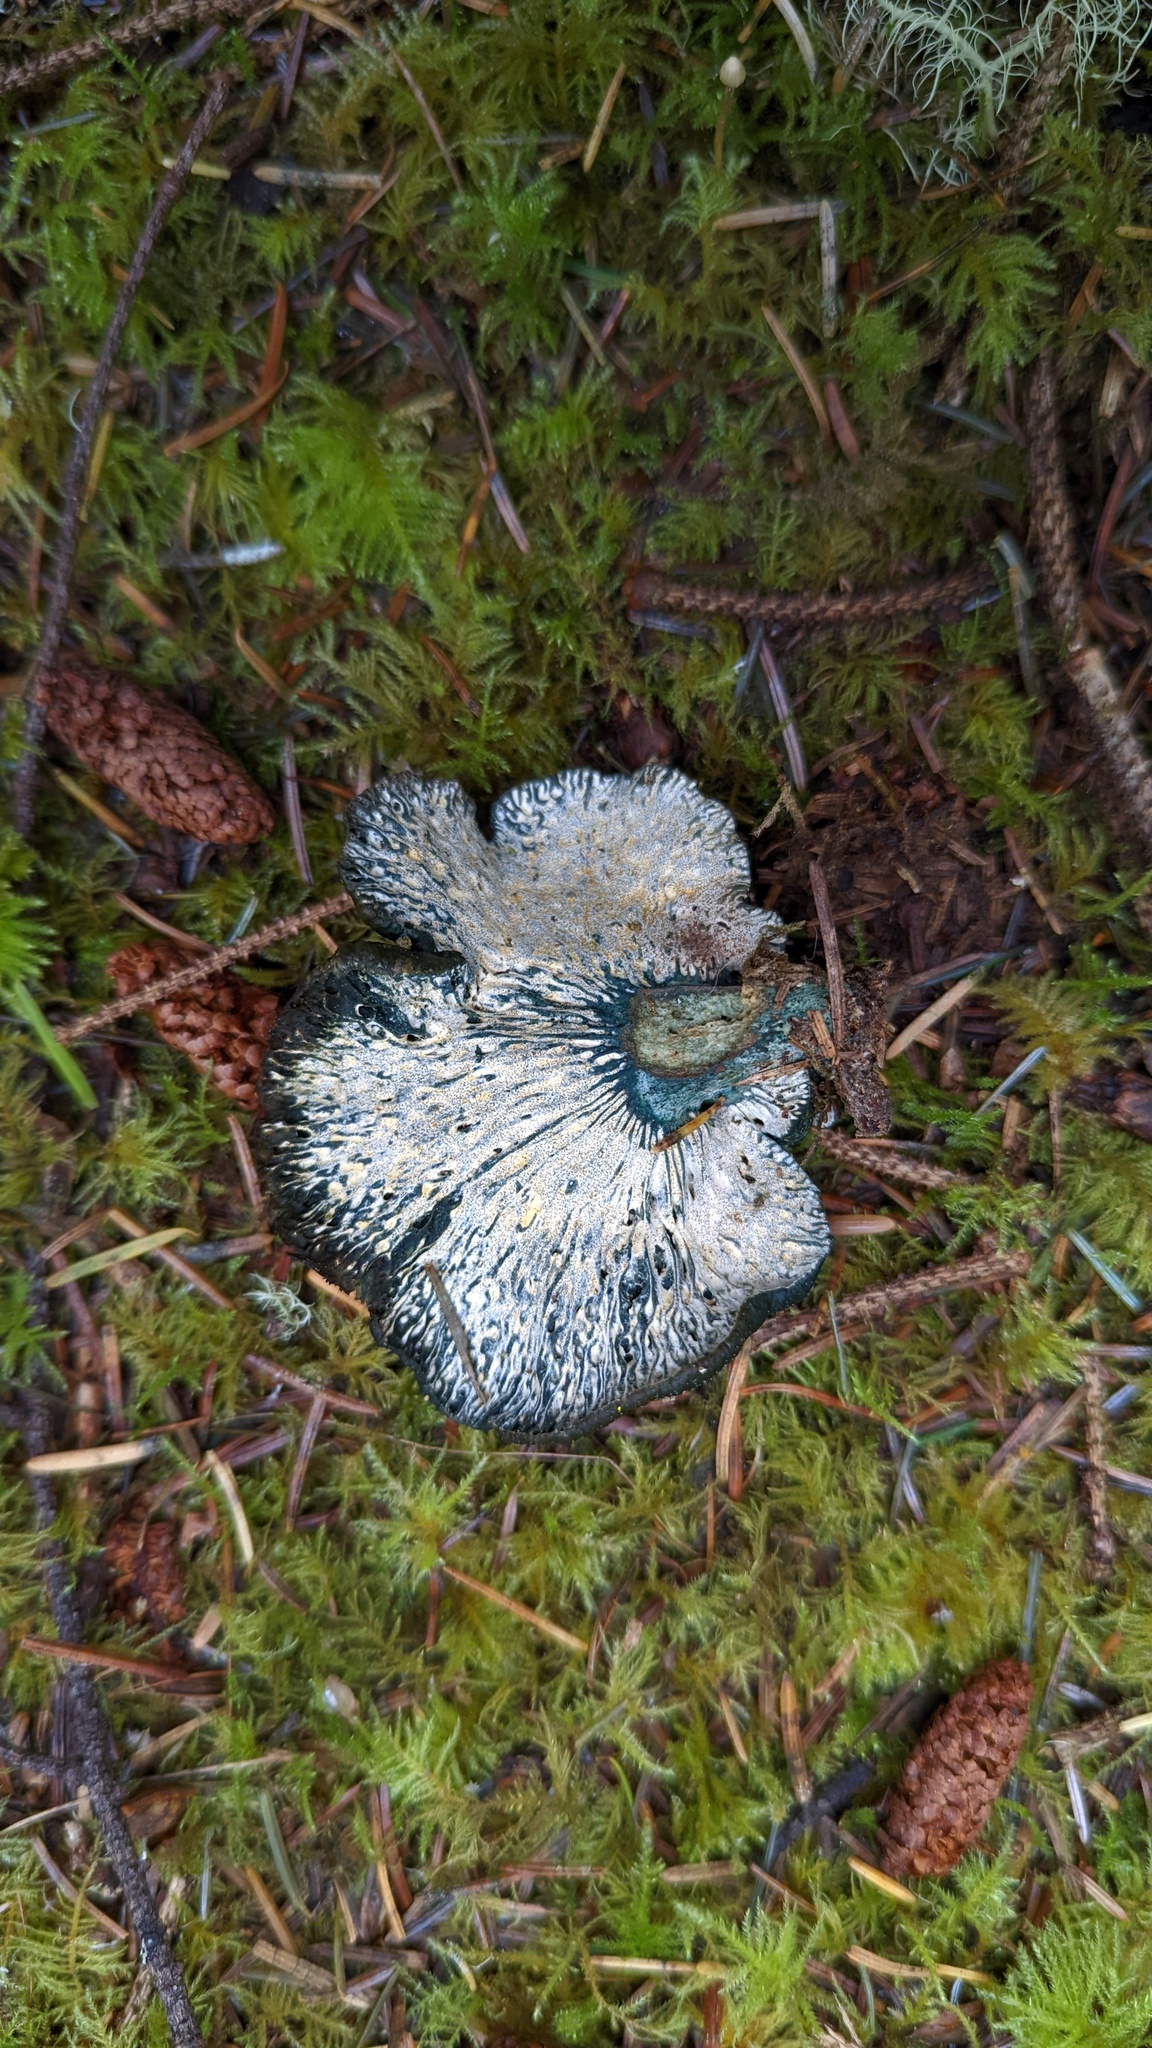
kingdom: Fungi
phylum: Ascomycota
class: Sordariomycetes
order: Hypocreales
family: Hypocreaceae
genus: Hypomyces
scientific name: Hypomyces lateritius
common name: Ochre gillgobbler
